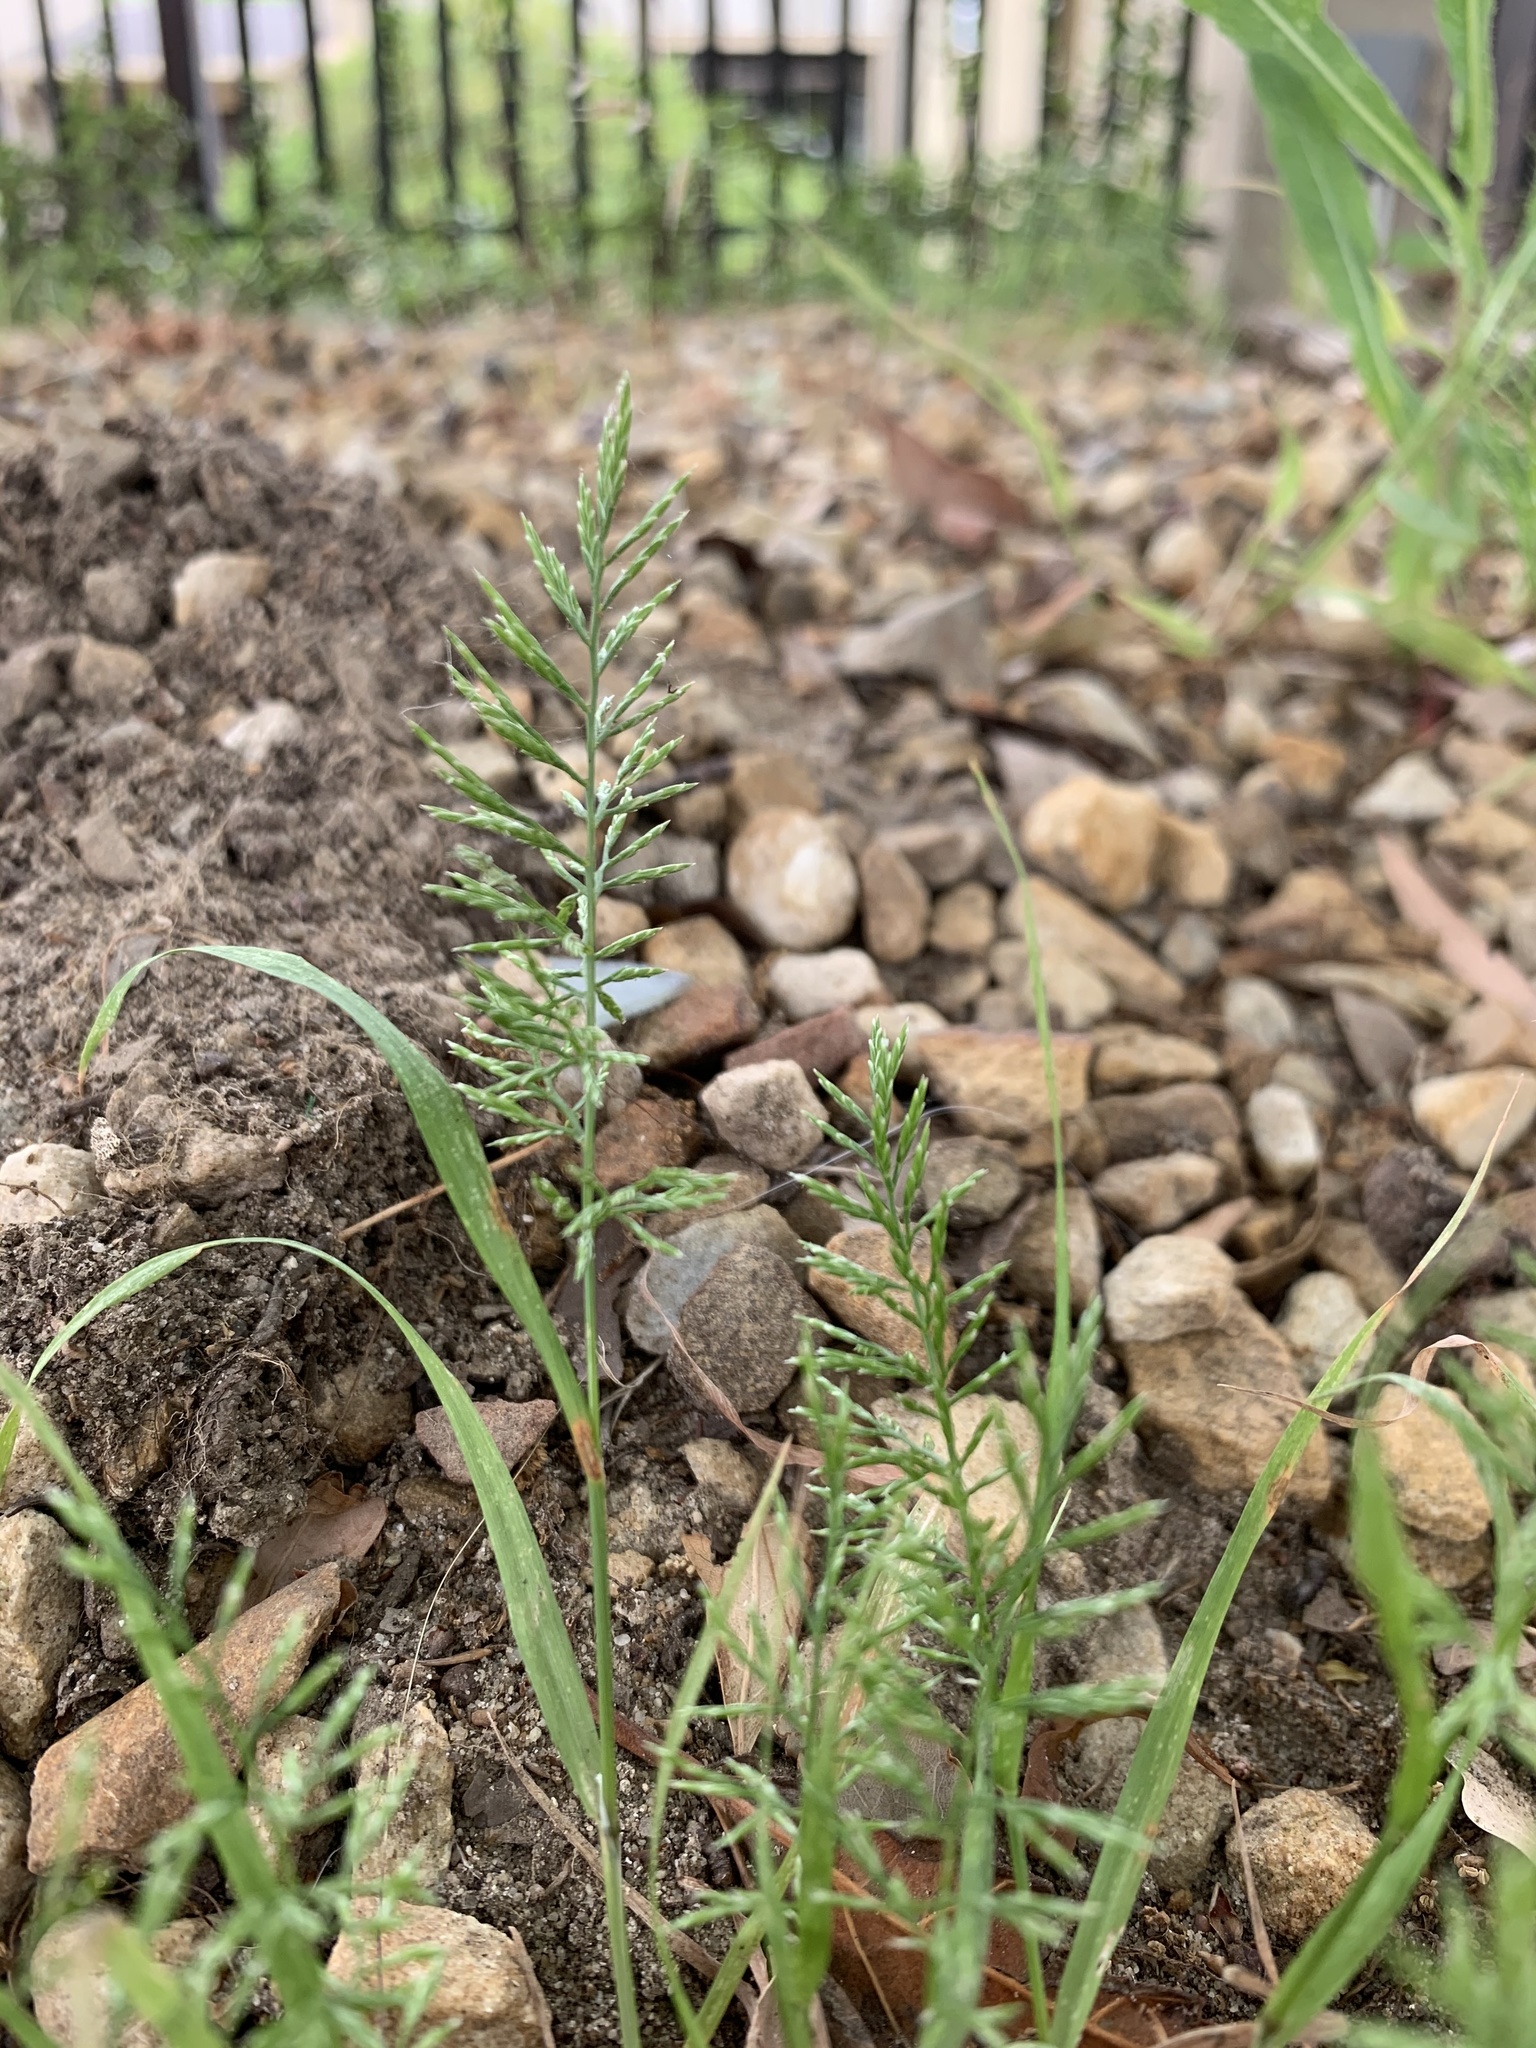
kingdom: Plantae
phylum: Tracheophyta
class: Liliopsida
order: Poales
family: Poaceae
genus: Catapodium
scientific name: Catapodium rigidum
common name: Fern-grass
